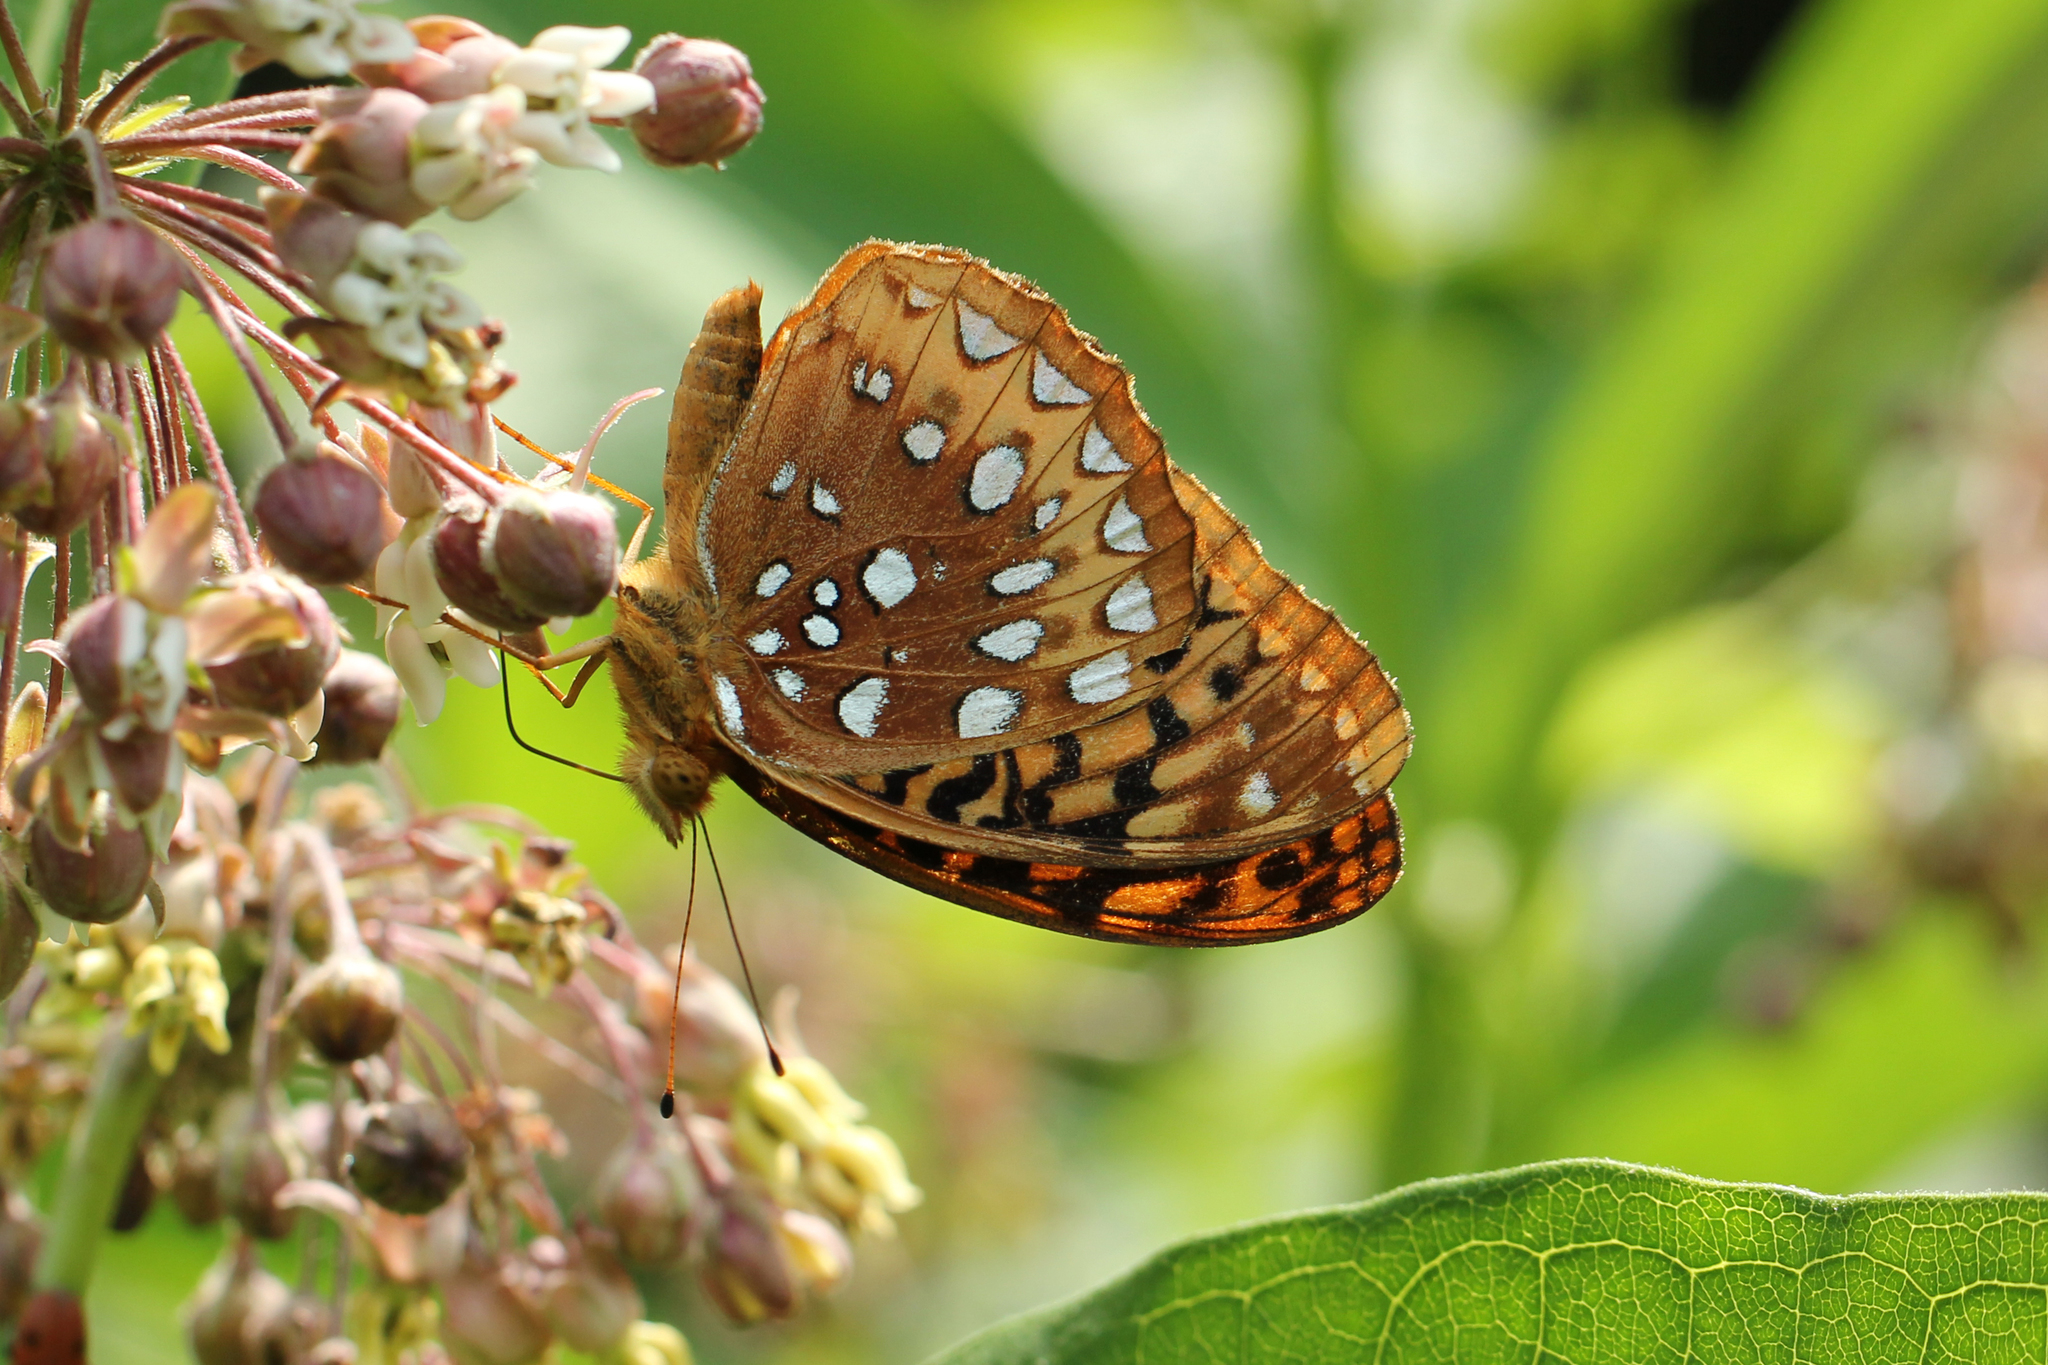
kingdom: Animalia
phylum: Arthropoda
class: Insecta
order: Lepidoptera
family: Nymphalidae
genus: Speyeria
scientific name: Speyeria cybele
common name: Great spangled fritillary
